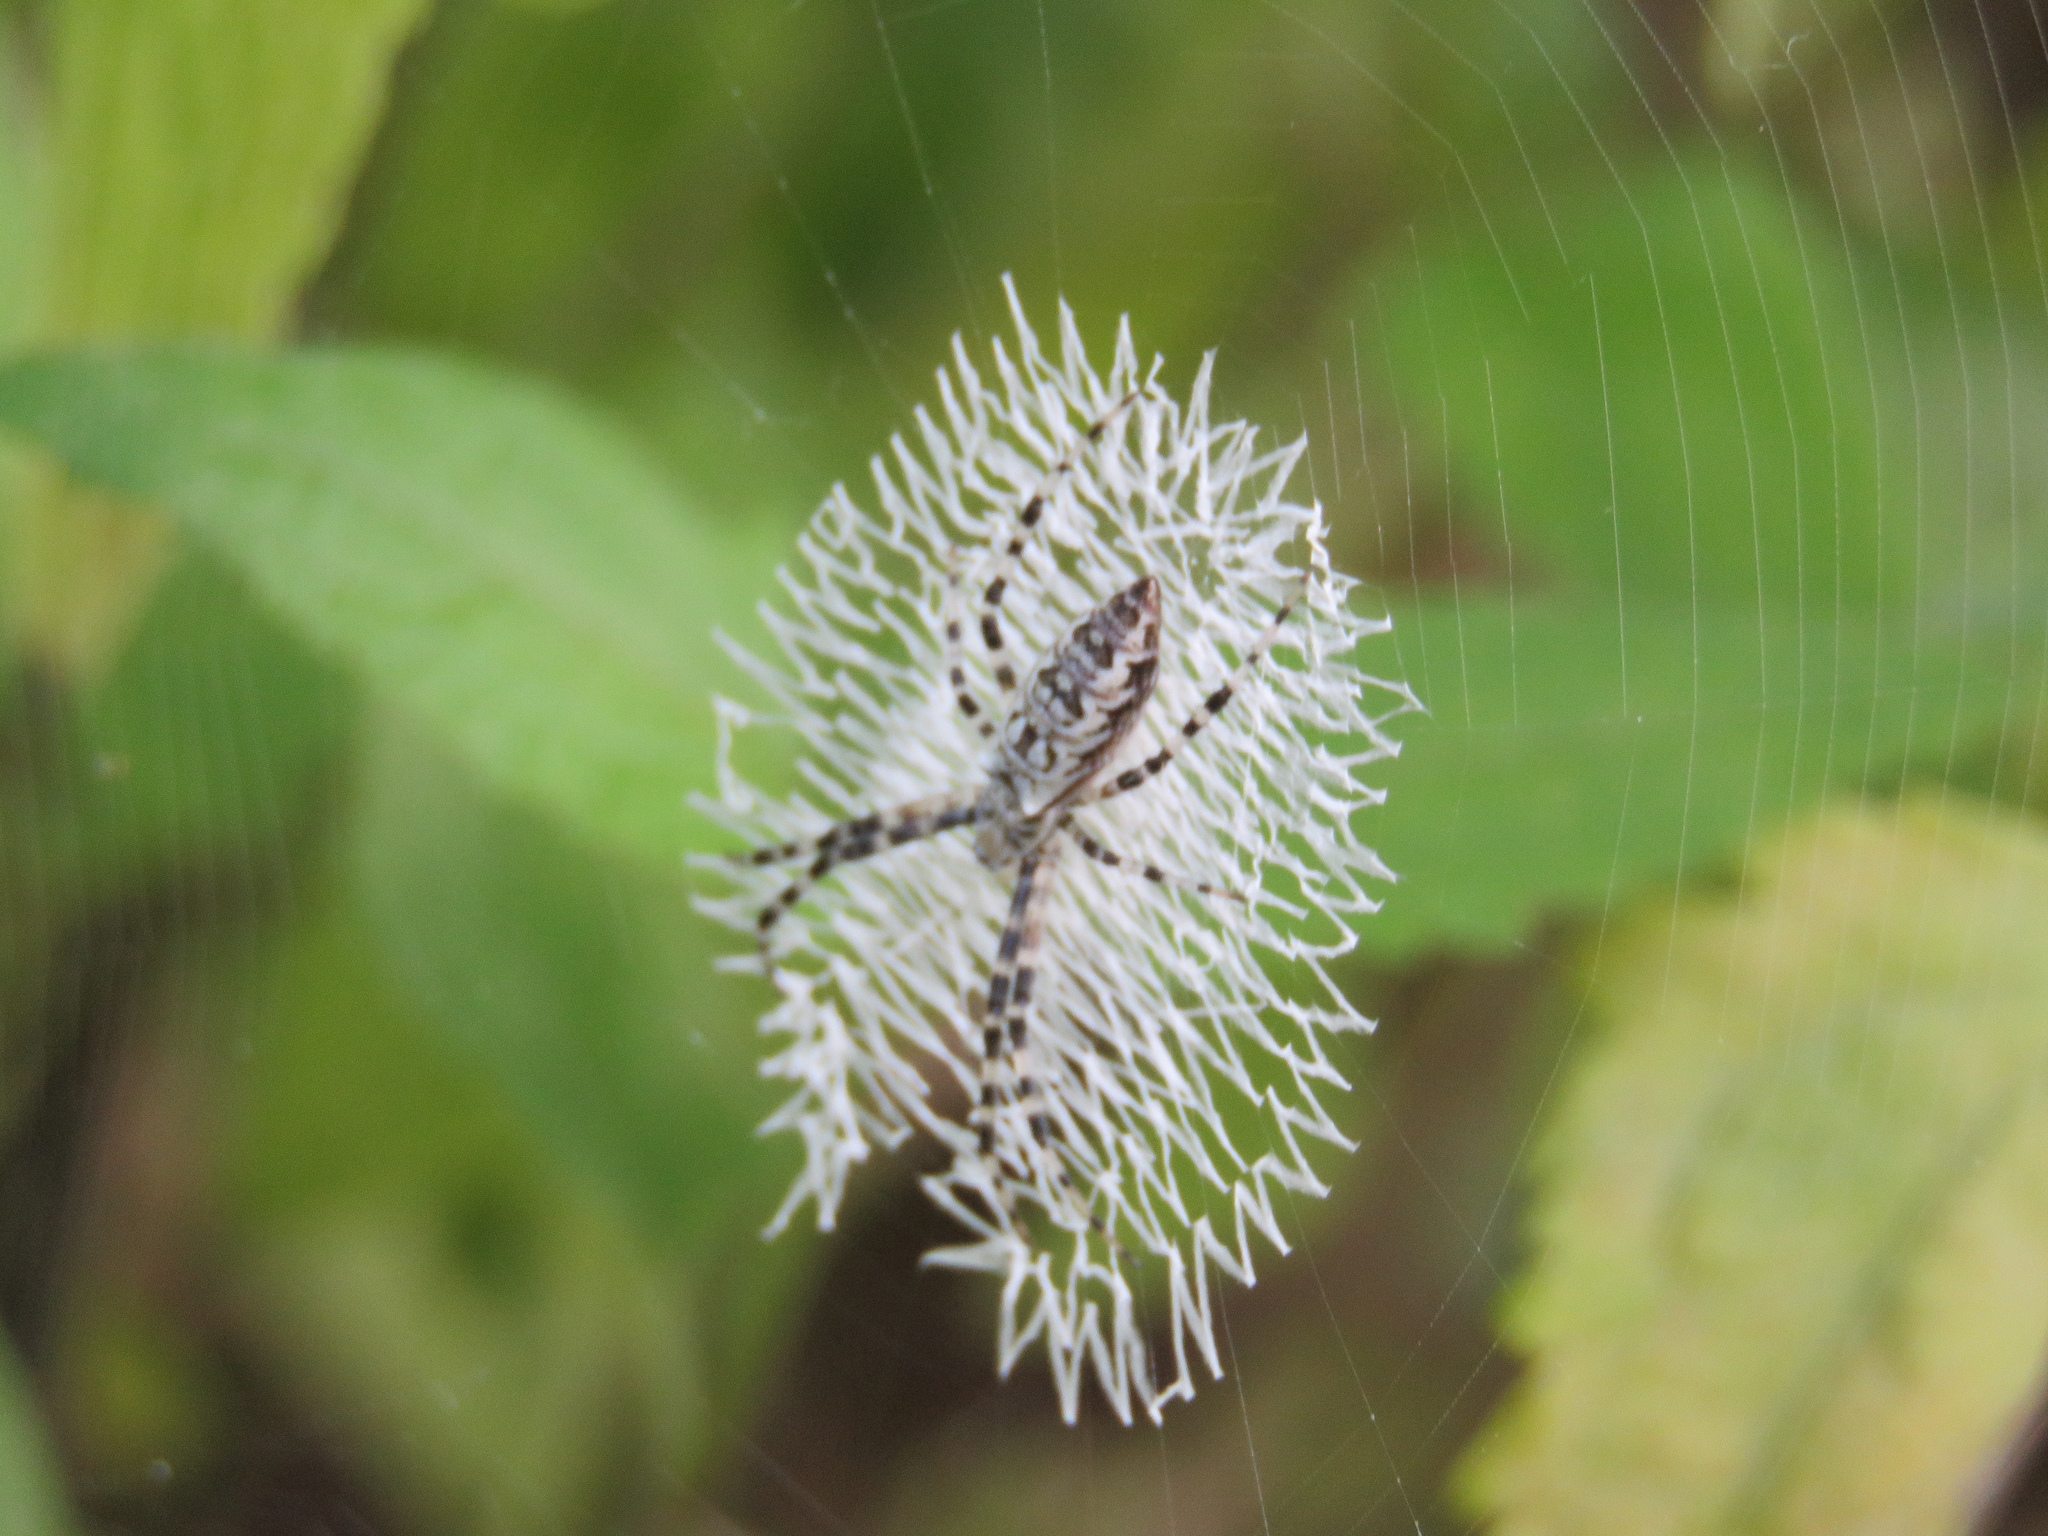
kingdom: Animalia
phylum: Arthropoda
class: Arachnida
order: Araneae
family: Araneidae
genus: Argiope
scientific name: Argiope aurantia
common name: Orb weavers
